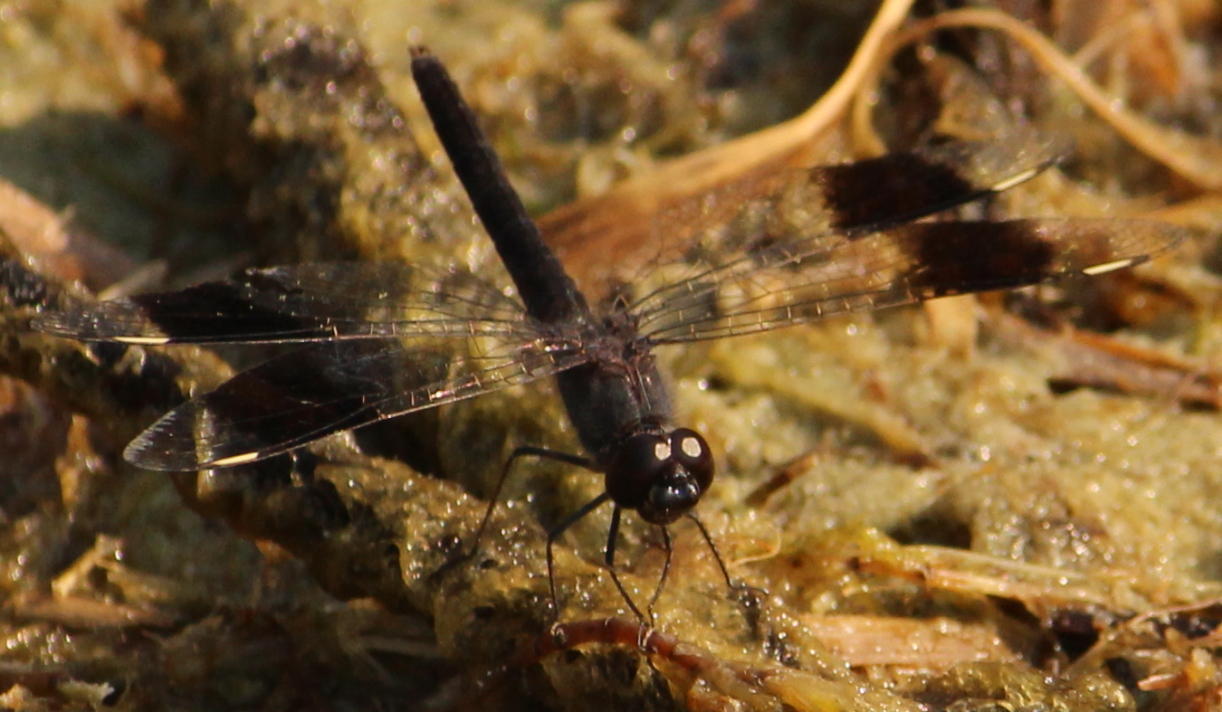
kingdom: Animalia
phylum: Arthropoda
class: Insecta
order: Odonata
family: Libellulidae
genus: Brachythemis
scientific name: Brachythemis leucosticta
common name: Banded groundling
